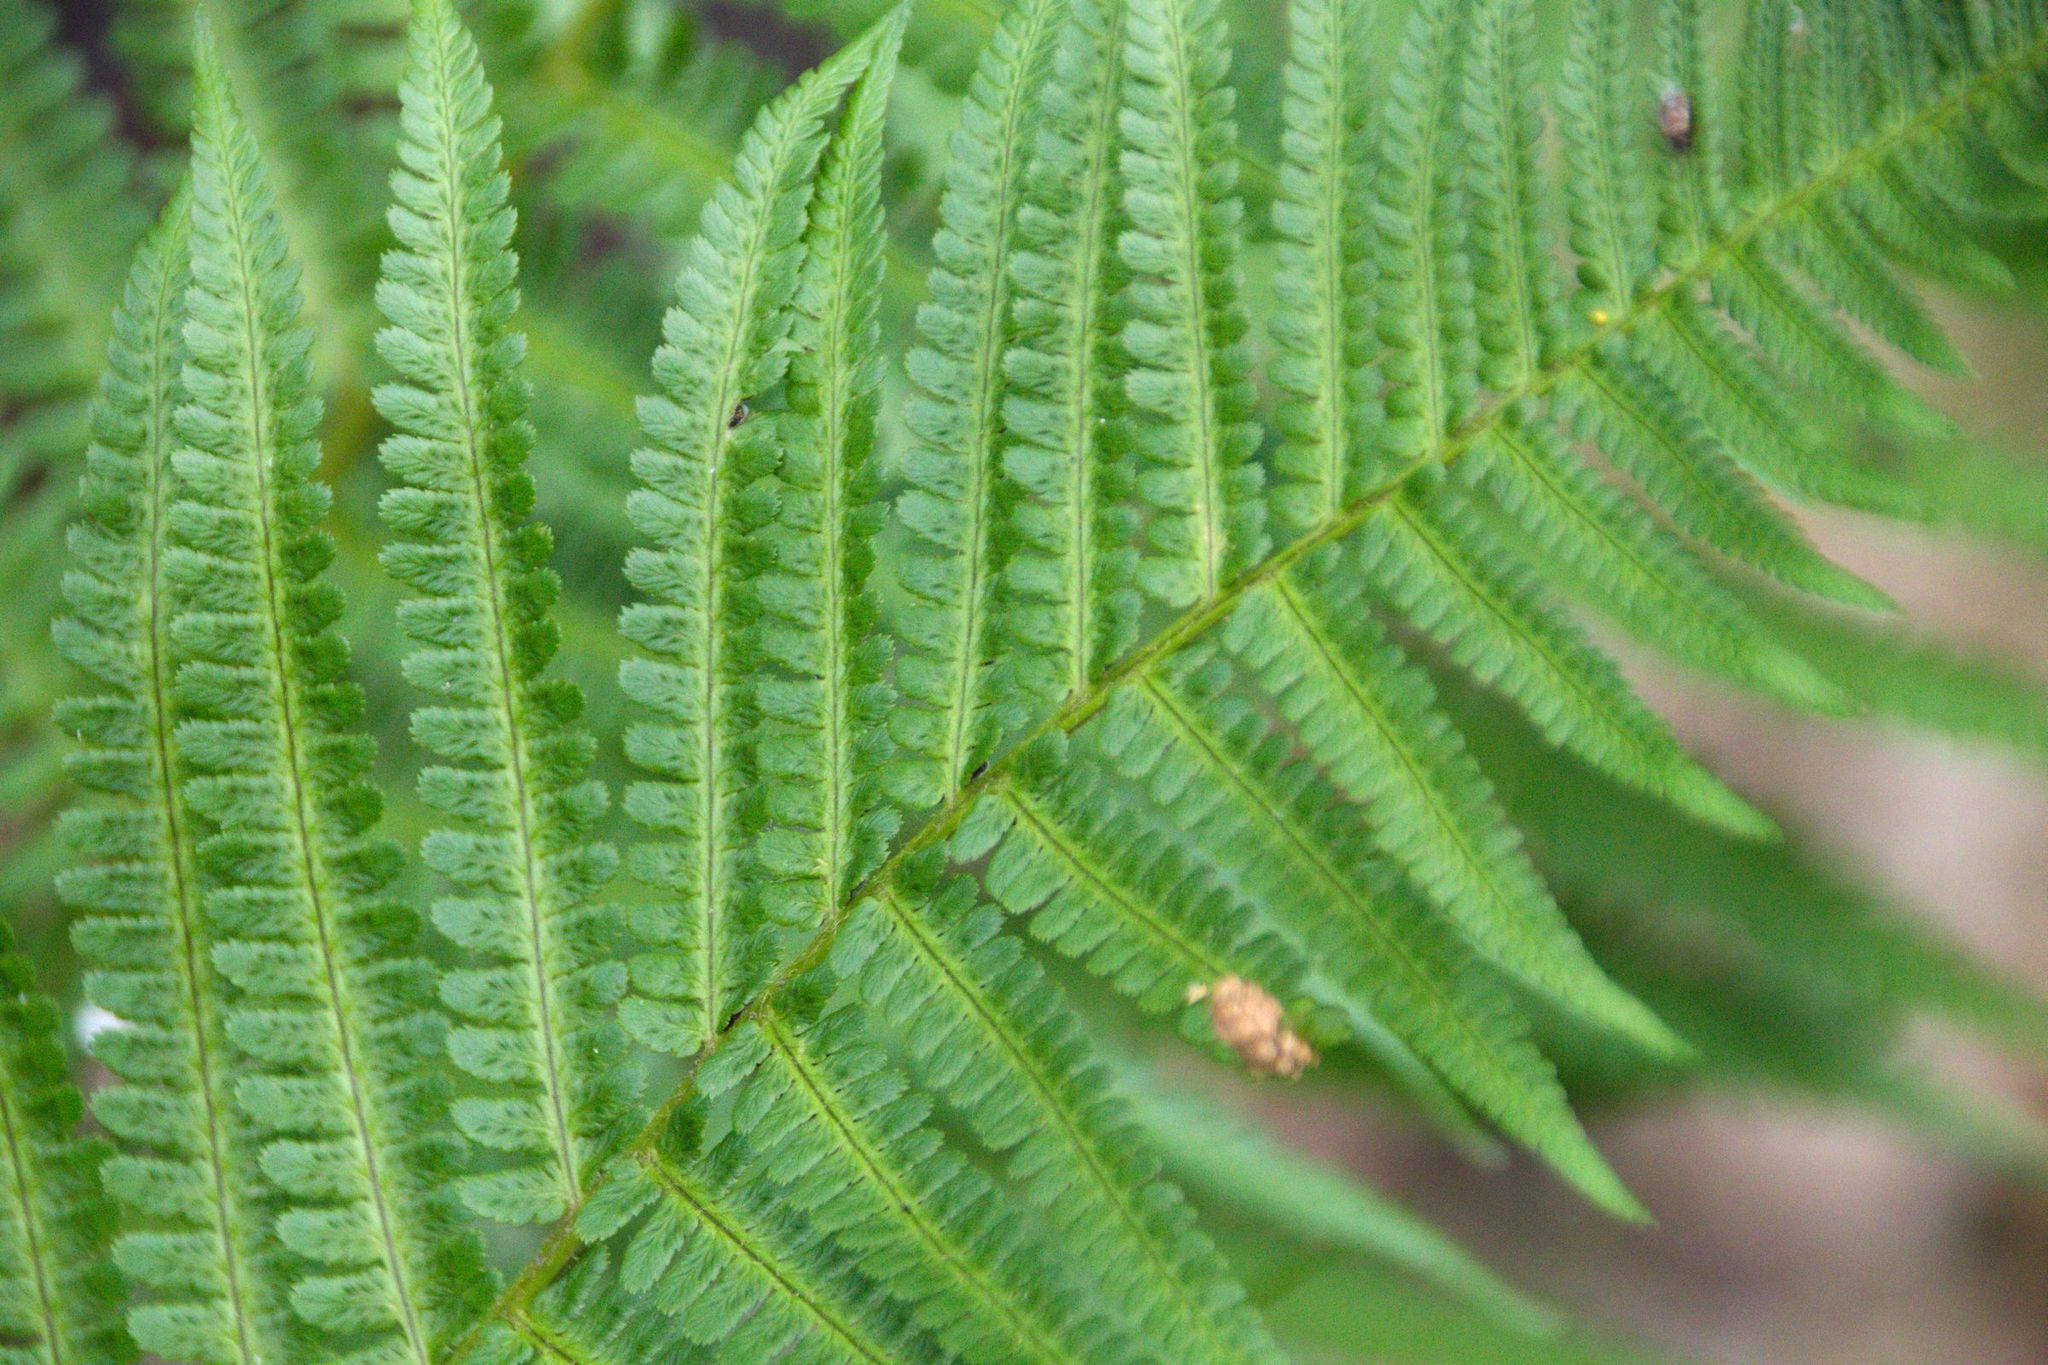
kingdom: Plantae
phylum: Tracheophyta
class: Polypodiopsida
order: Polypodiales
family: Dryopteridaceae
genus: Dryopteris
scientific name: Dryopteris filix-mas
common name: Male fern
